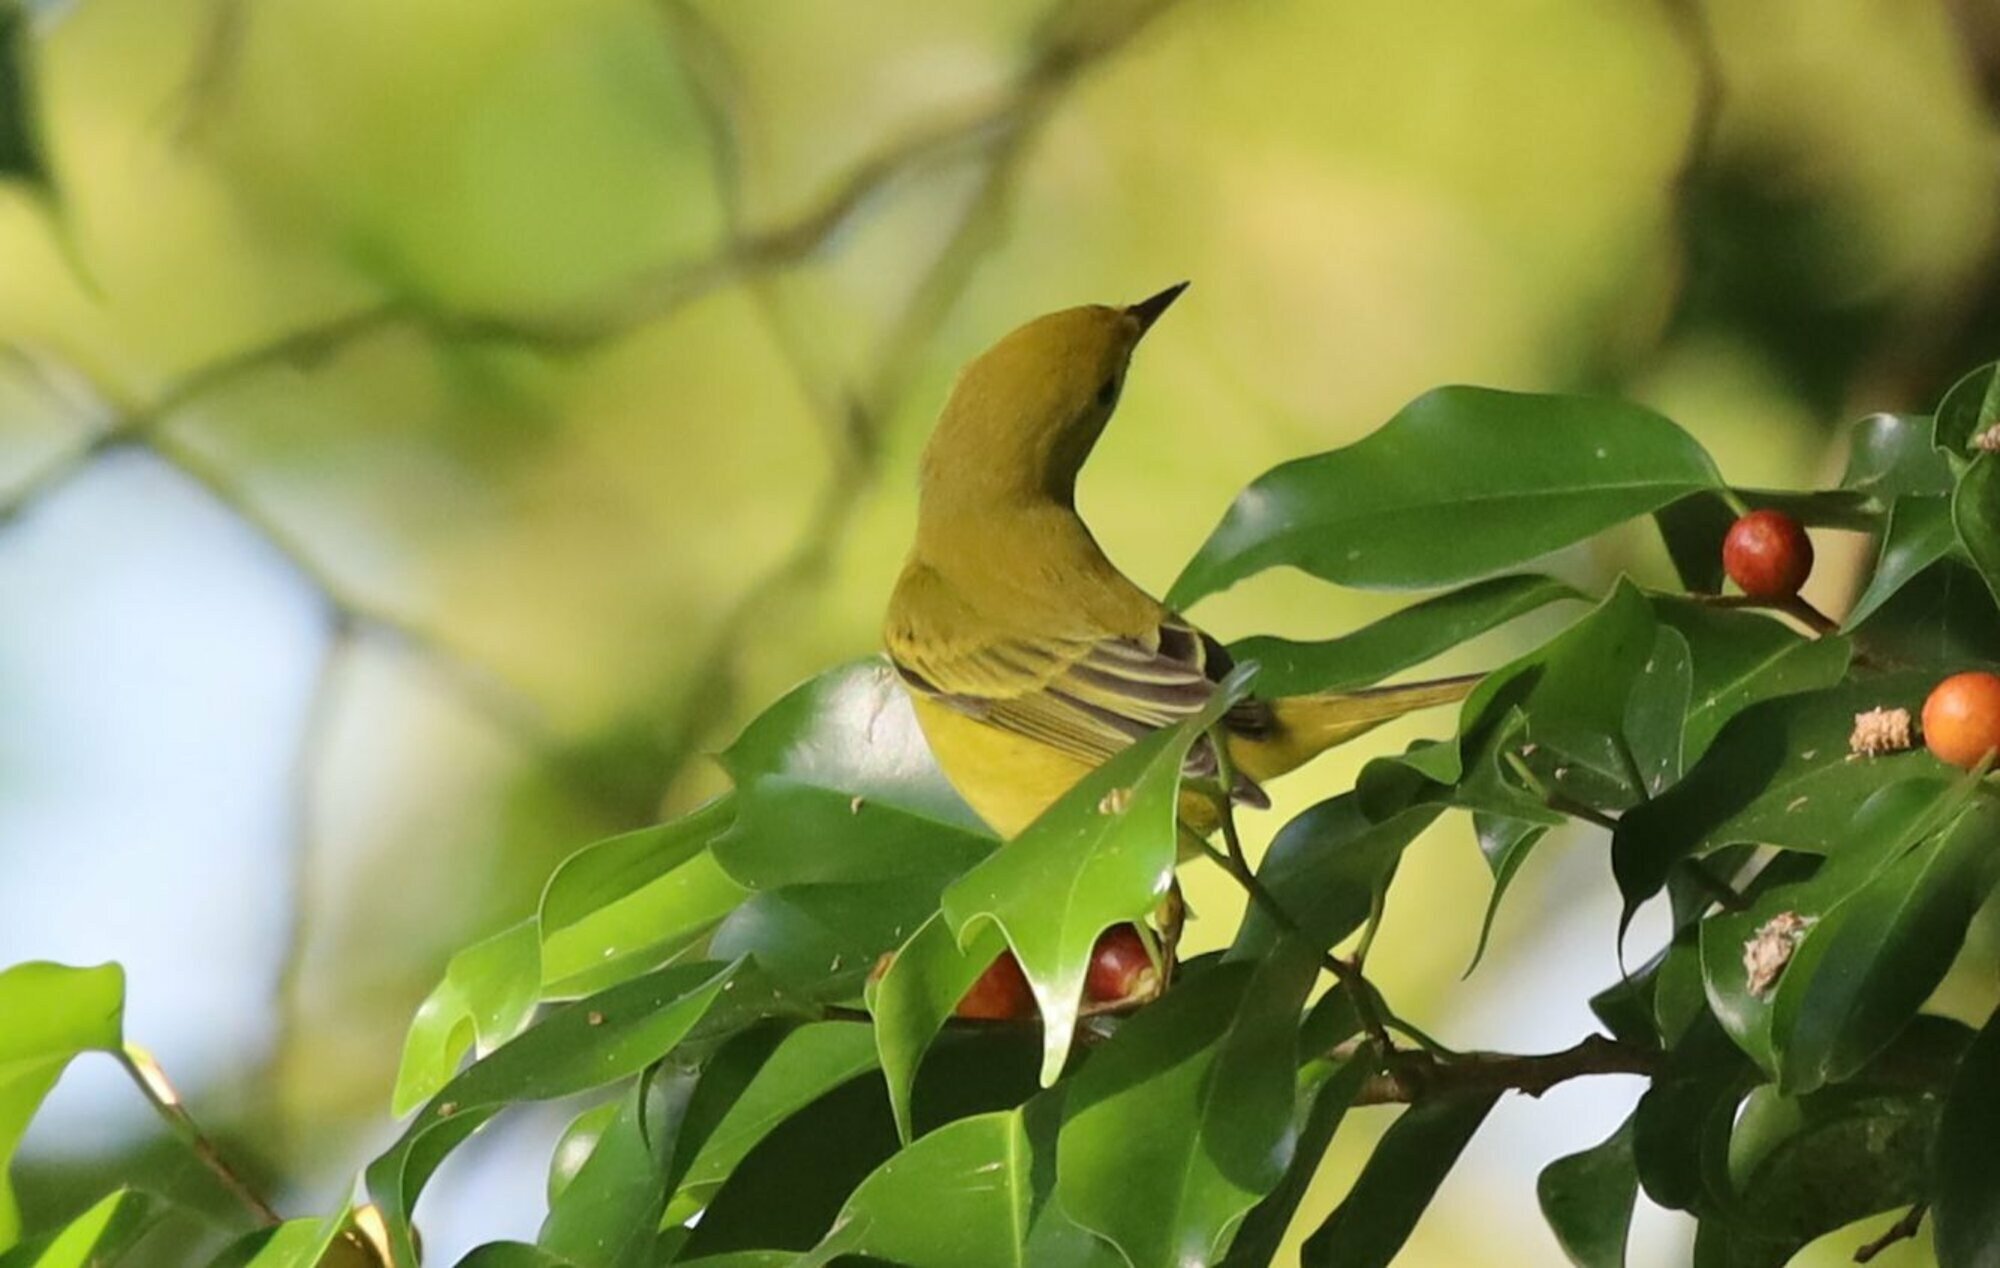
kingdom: Animalia
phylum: Chordata
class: Aves
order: Passeriformes
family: Parulidae
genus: Setophaga
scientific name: Setophaga petechia
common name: Yellow warbler
